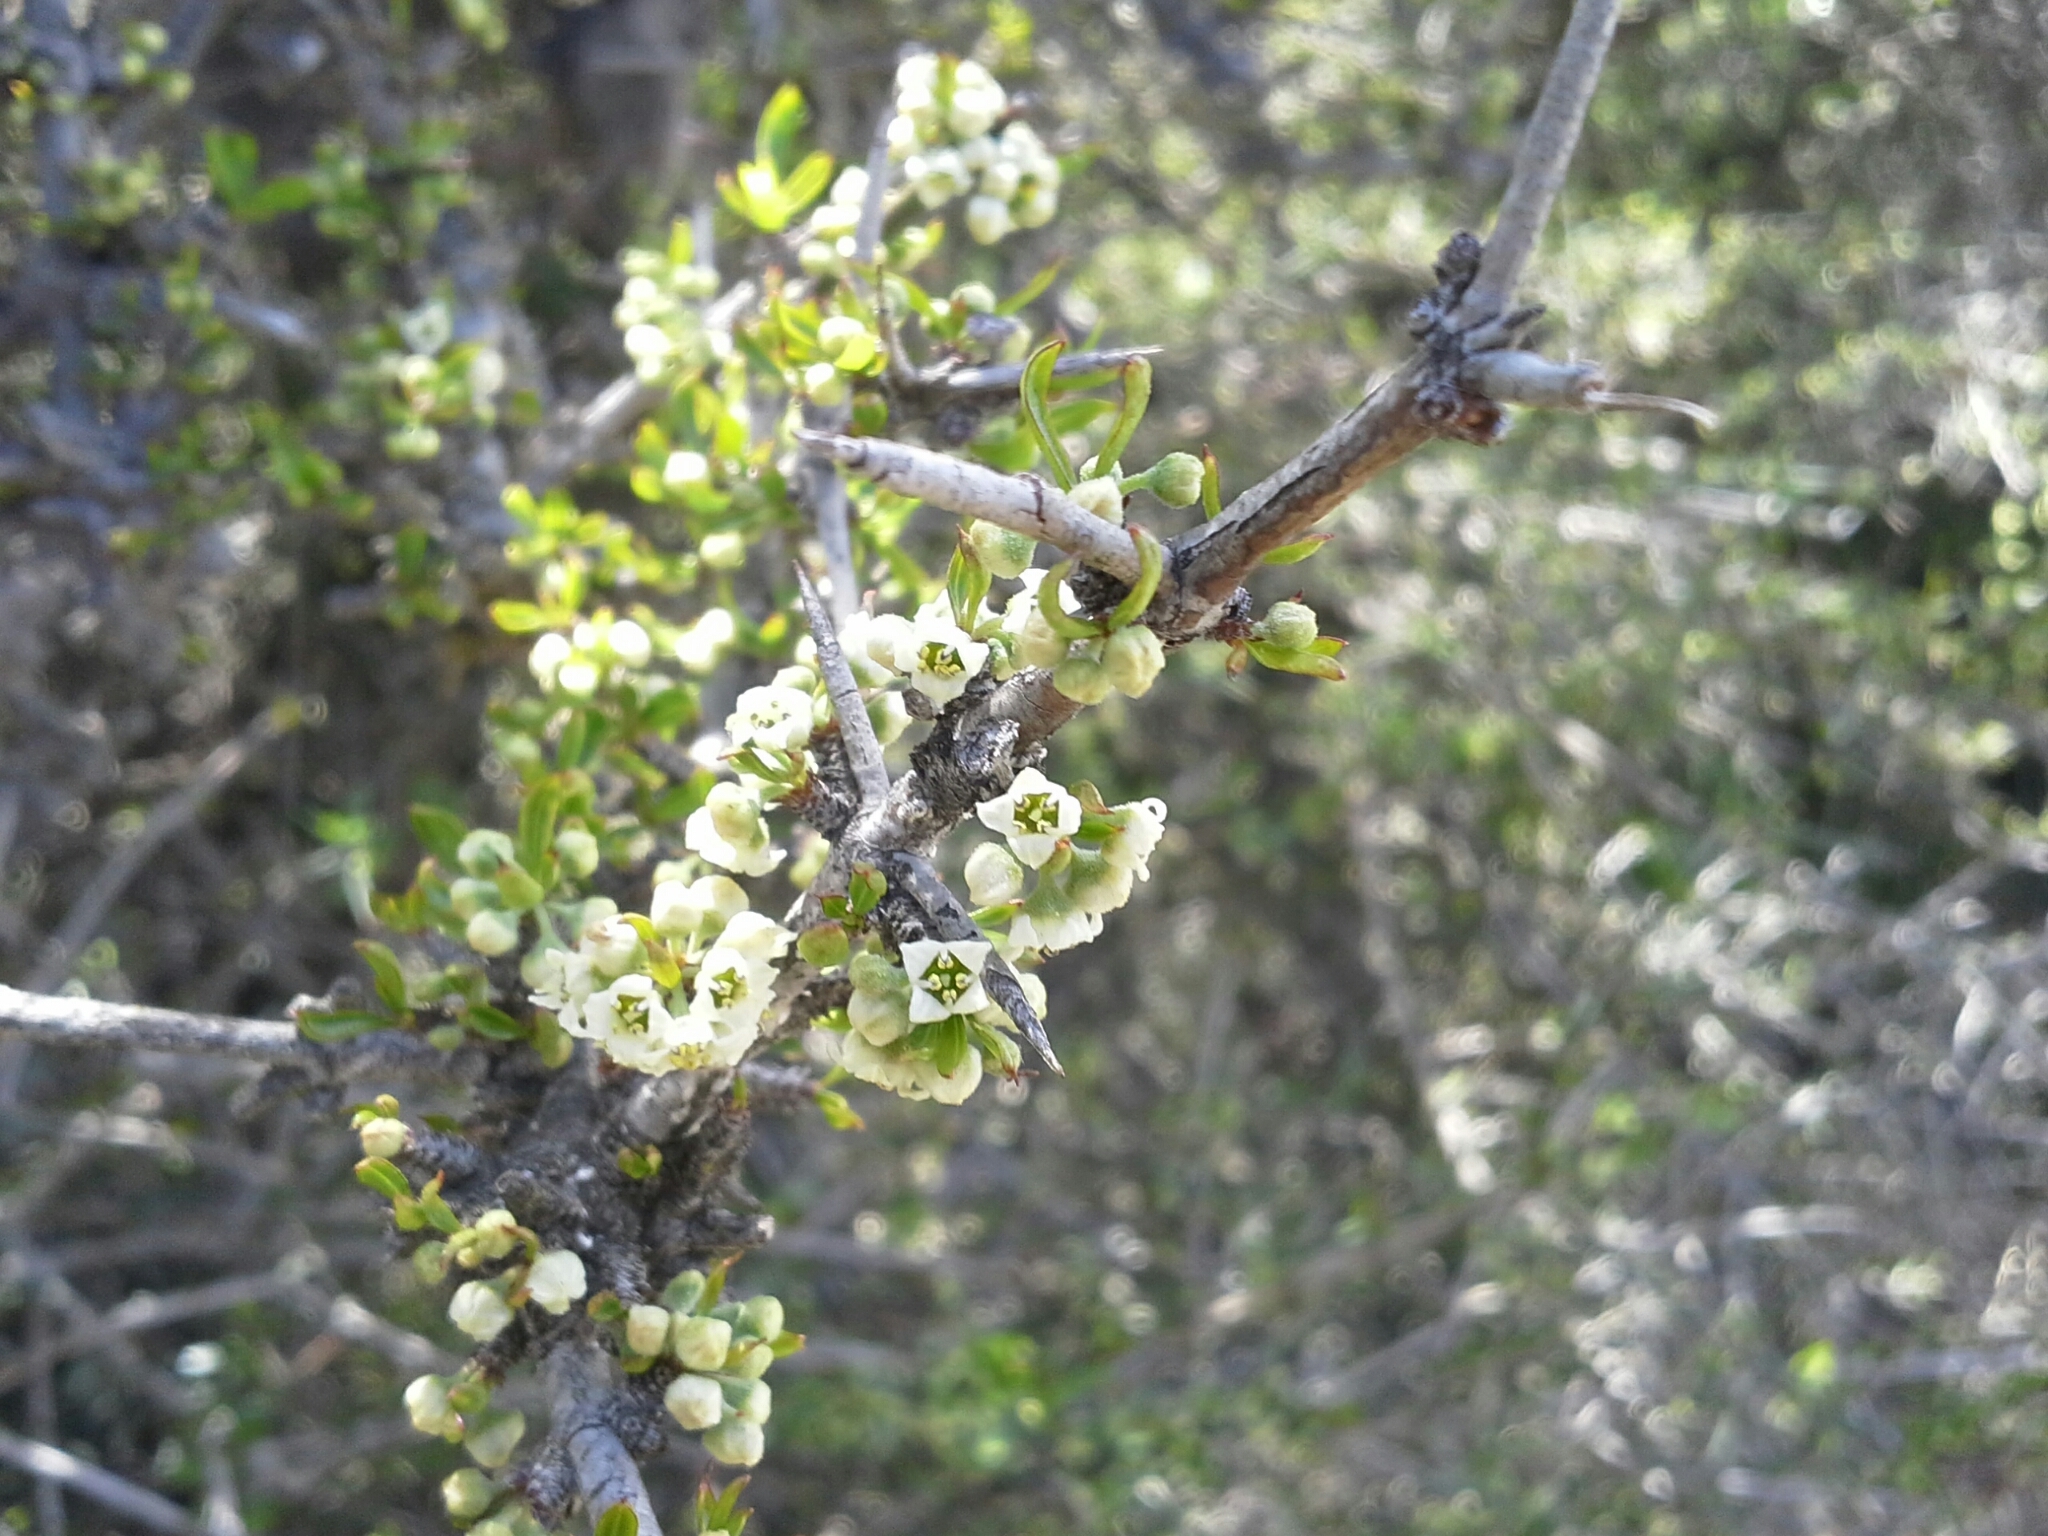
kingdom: Plantae
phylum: Tracheophyta
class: Magnoliopsida
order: Rosales
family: Rhamnaceae
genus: Discaria
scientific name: Discaria toumatou
